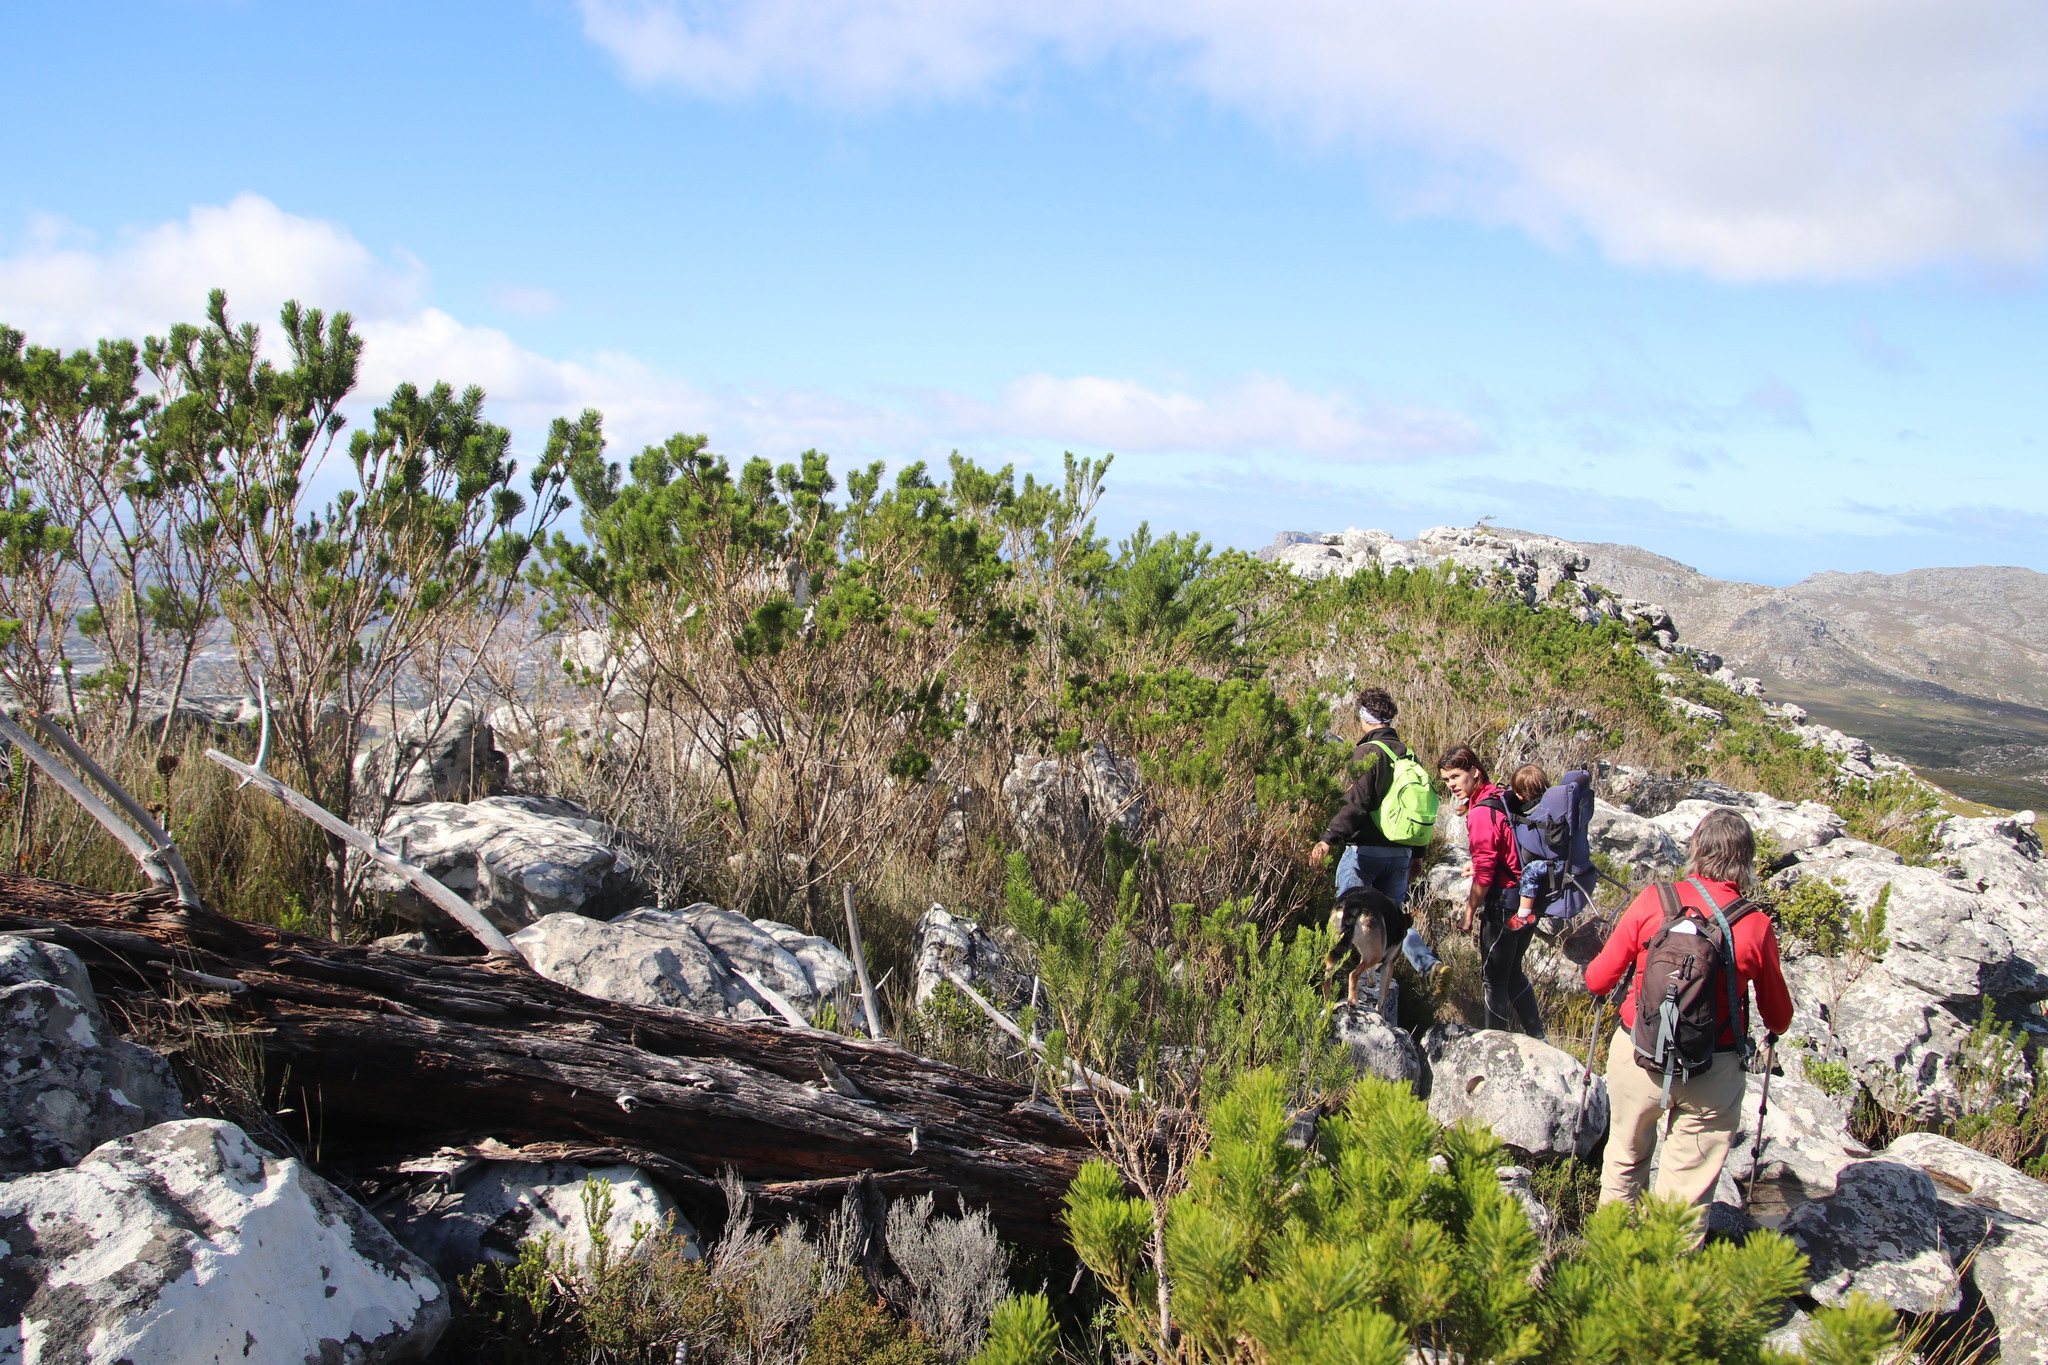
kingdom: Plantae
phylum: Tracheophyta
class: Magnoliopsida
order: Fabales
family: Fabaceae
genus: Psoralea
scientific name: Psoralea pinnata
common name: African scurfpea
